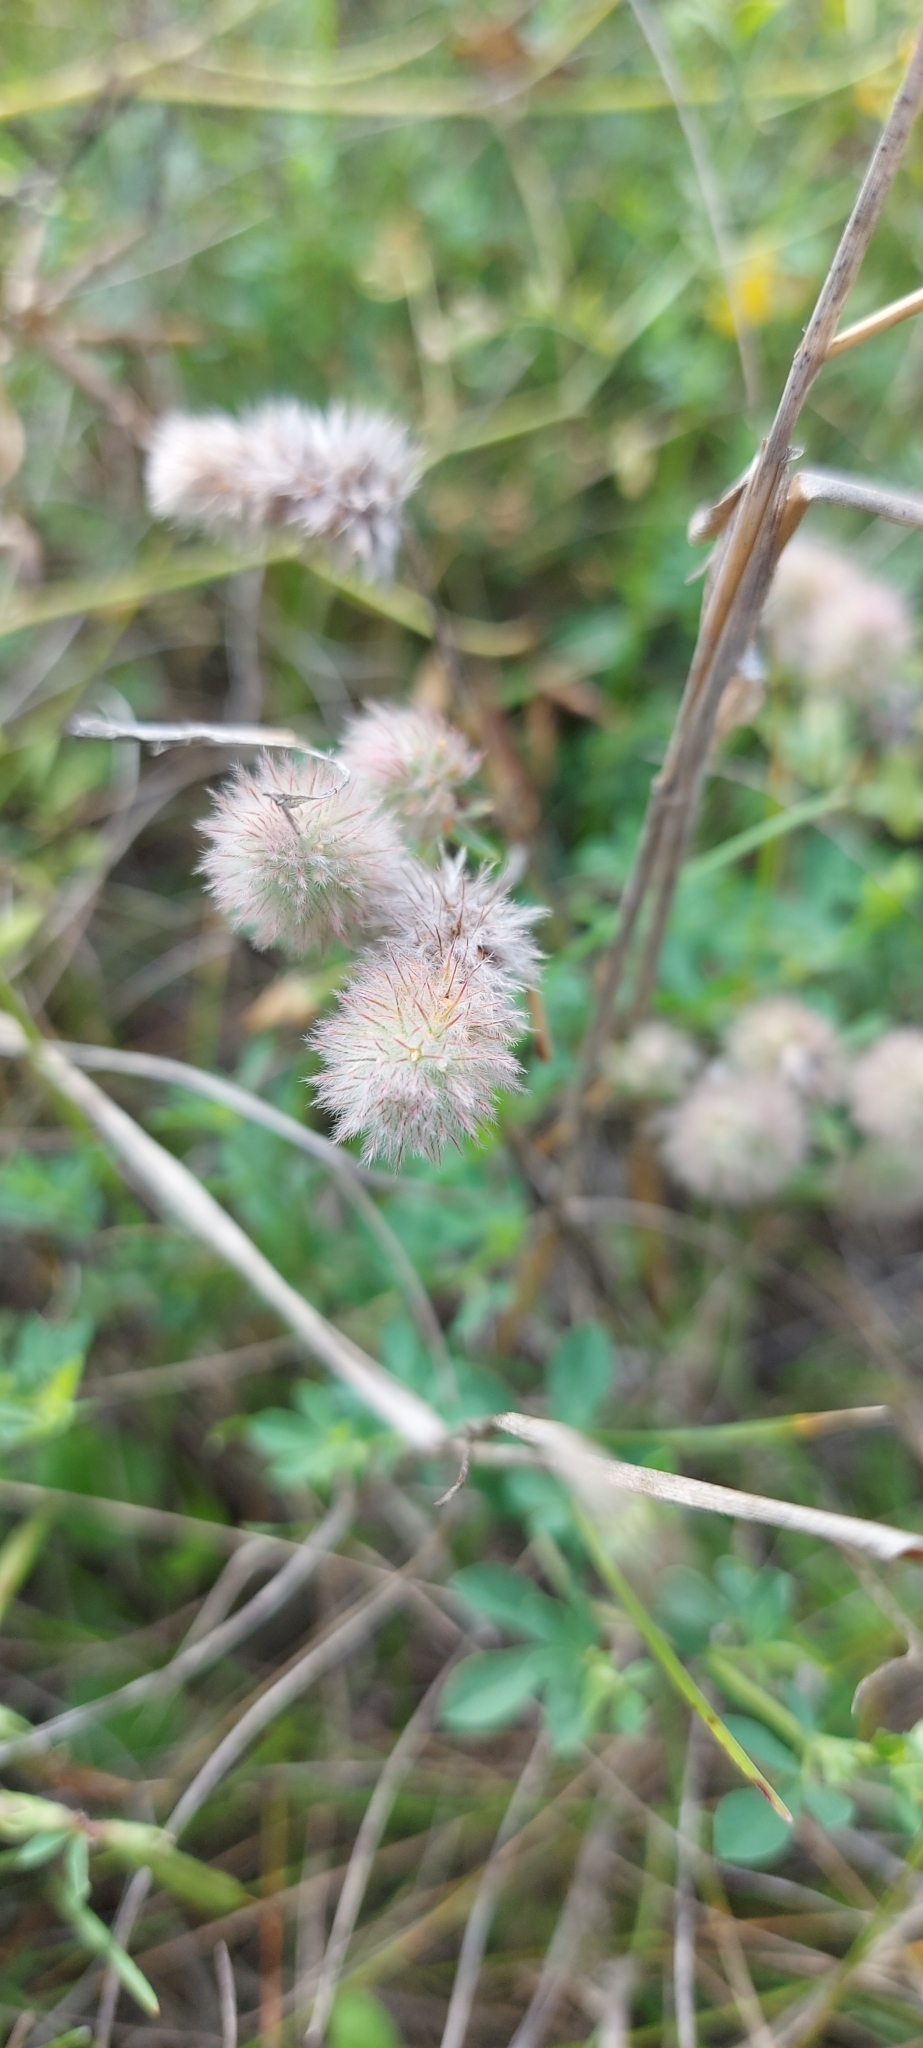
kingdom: Plantae
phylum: Tracheophyta
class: Magnoliopsida
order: Fabales
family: Fabaceae
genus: Trifolium
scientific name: Trifolium arvense
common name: Hare's-foot clover
